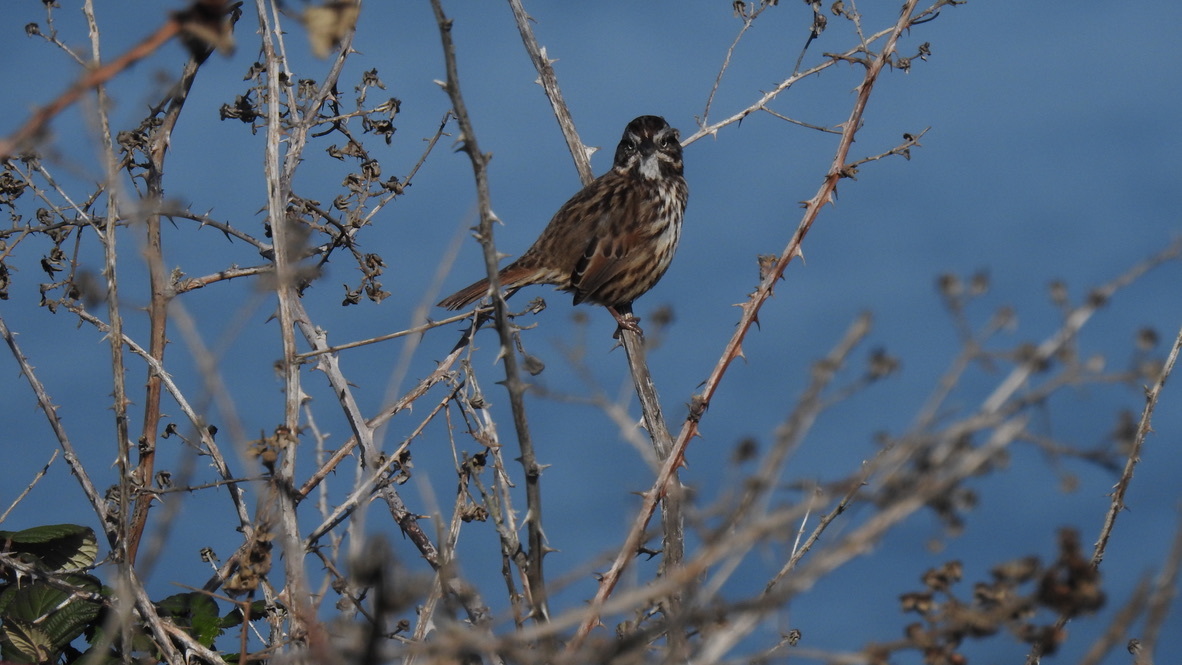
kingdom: Animalia
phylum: Chordata
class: Aves
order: Passeriformes
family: Passerellidae
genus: Melospiza
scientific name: Melospiza melodia
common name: Song sparrow
